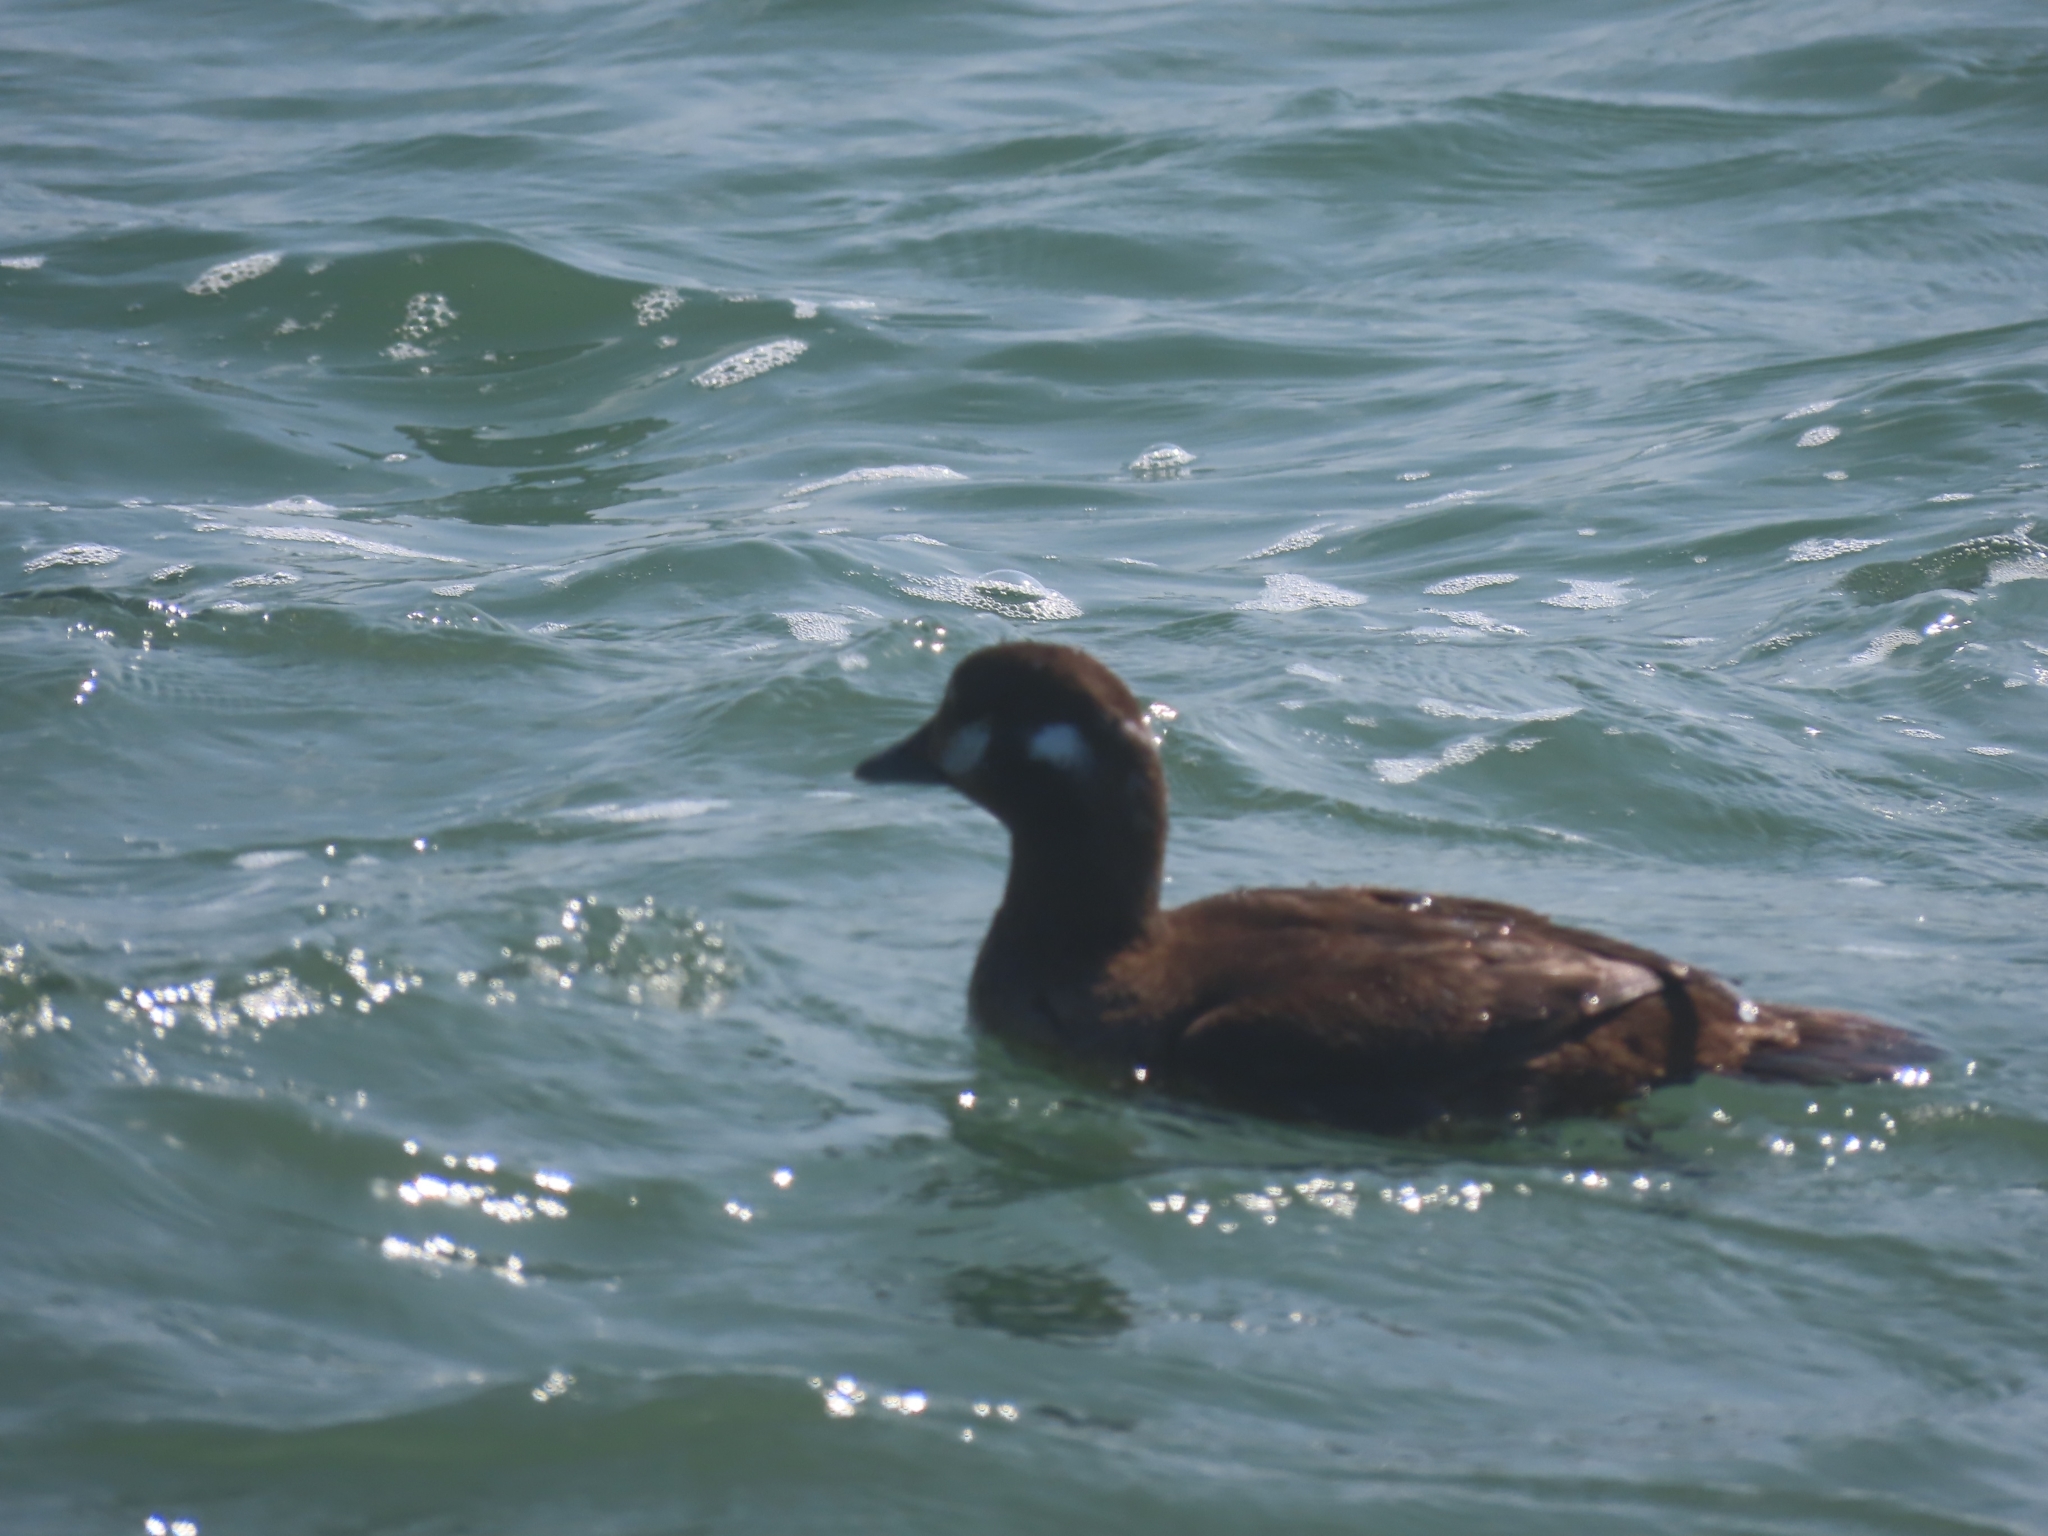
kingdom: Animalia
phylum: Chordata
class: Aves
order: Anseriformes
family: Anatidae
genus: Histrionicus
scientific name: Histrionicus histrionicus
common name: Harlequin duck
